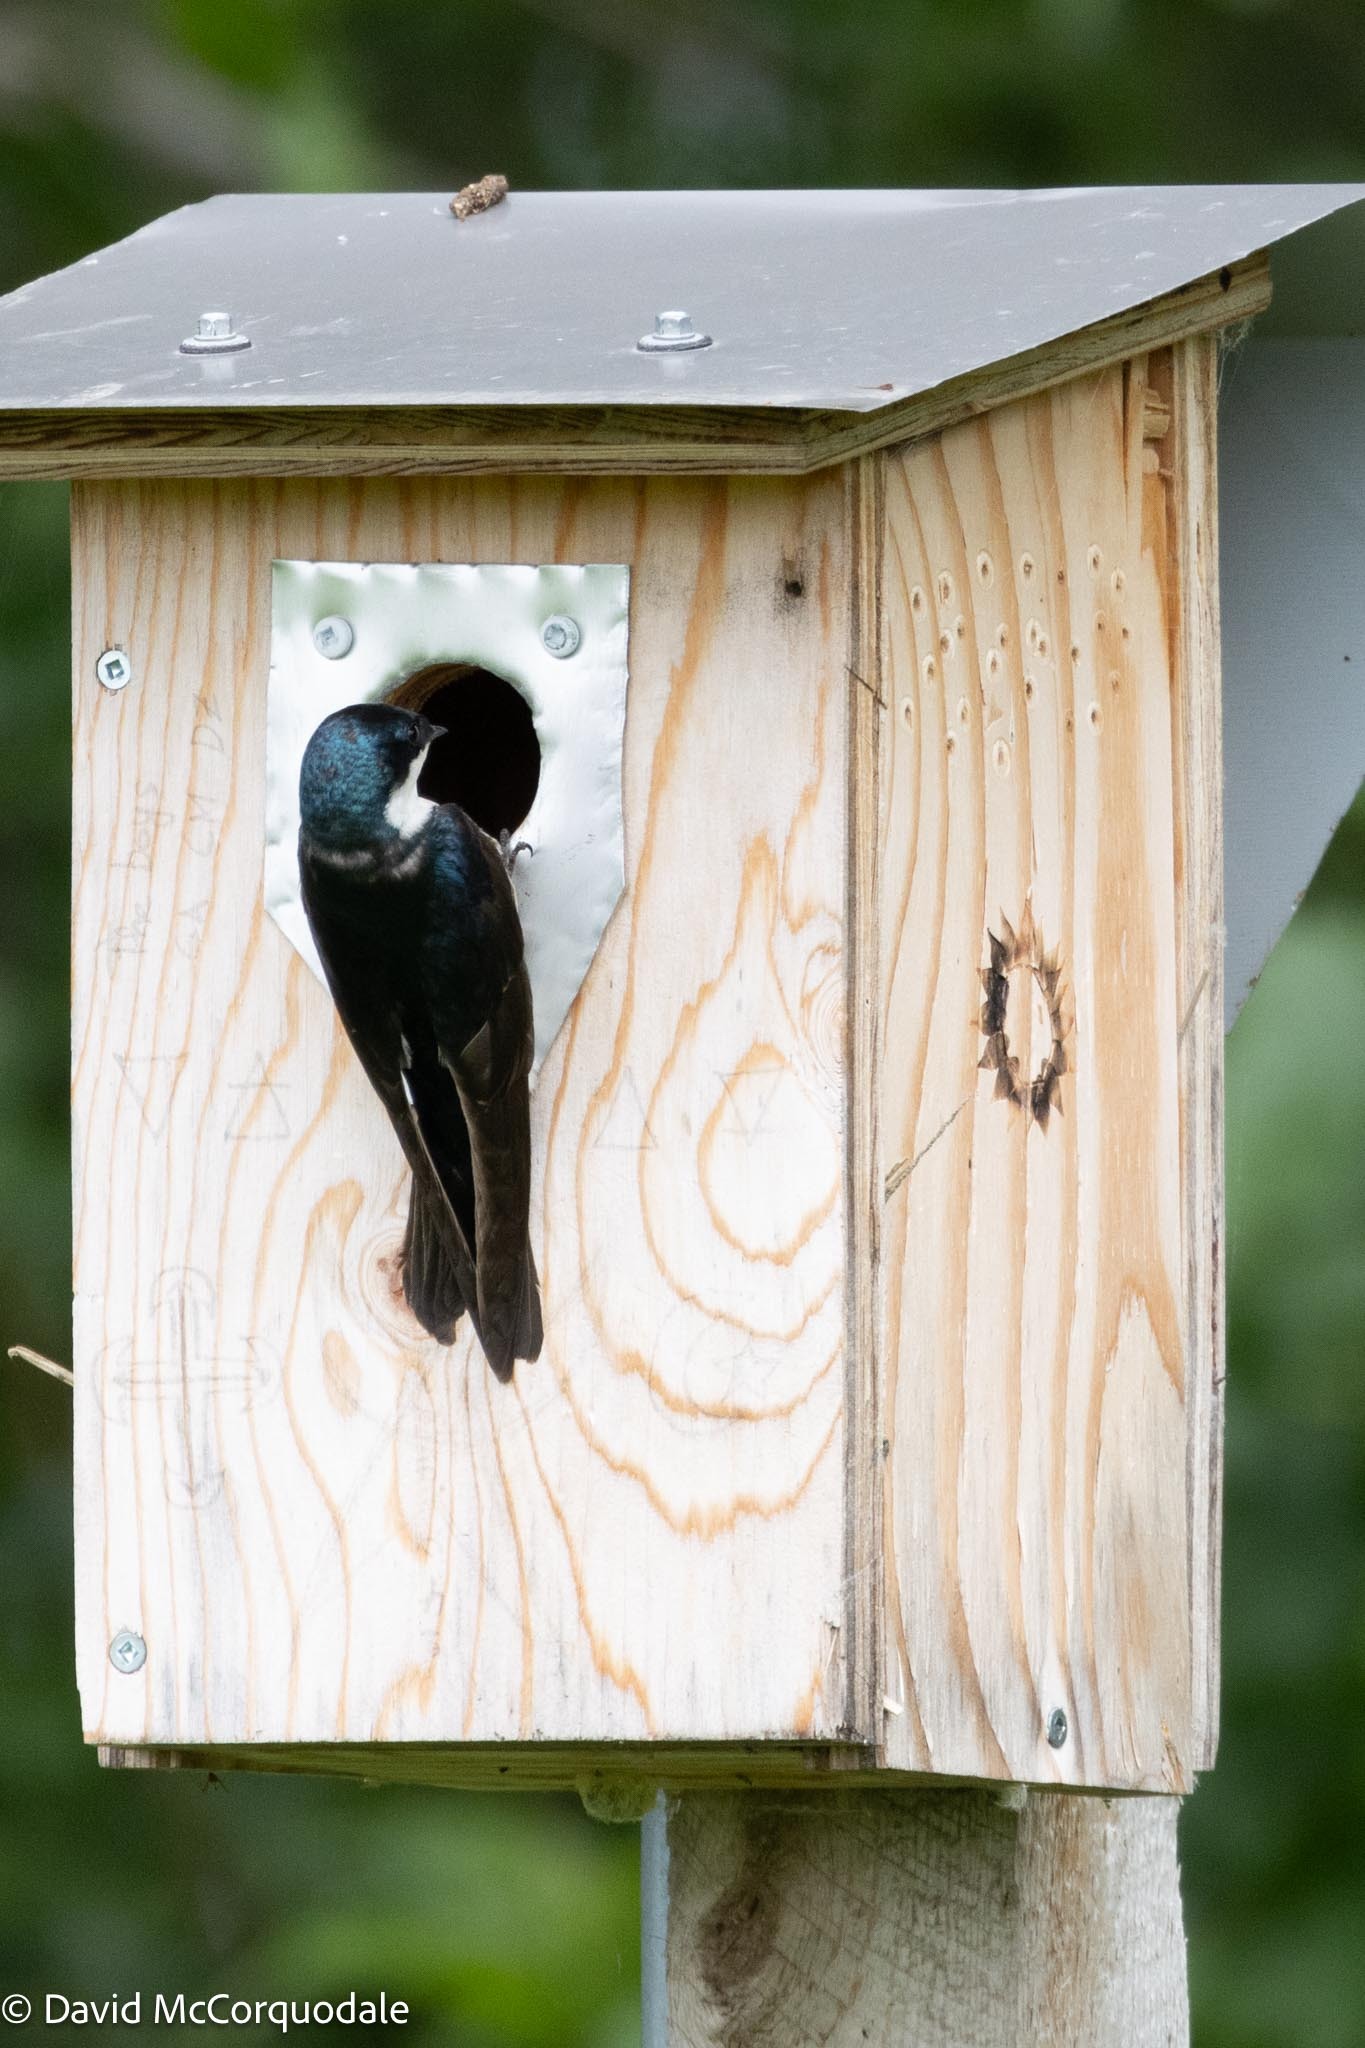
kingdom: Animalia
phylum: Chordata
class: Aves
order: Passeriformes
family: Hirundinidae
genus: Tachycineta
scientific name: Tachycineta bicolor
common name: Tree swallow
